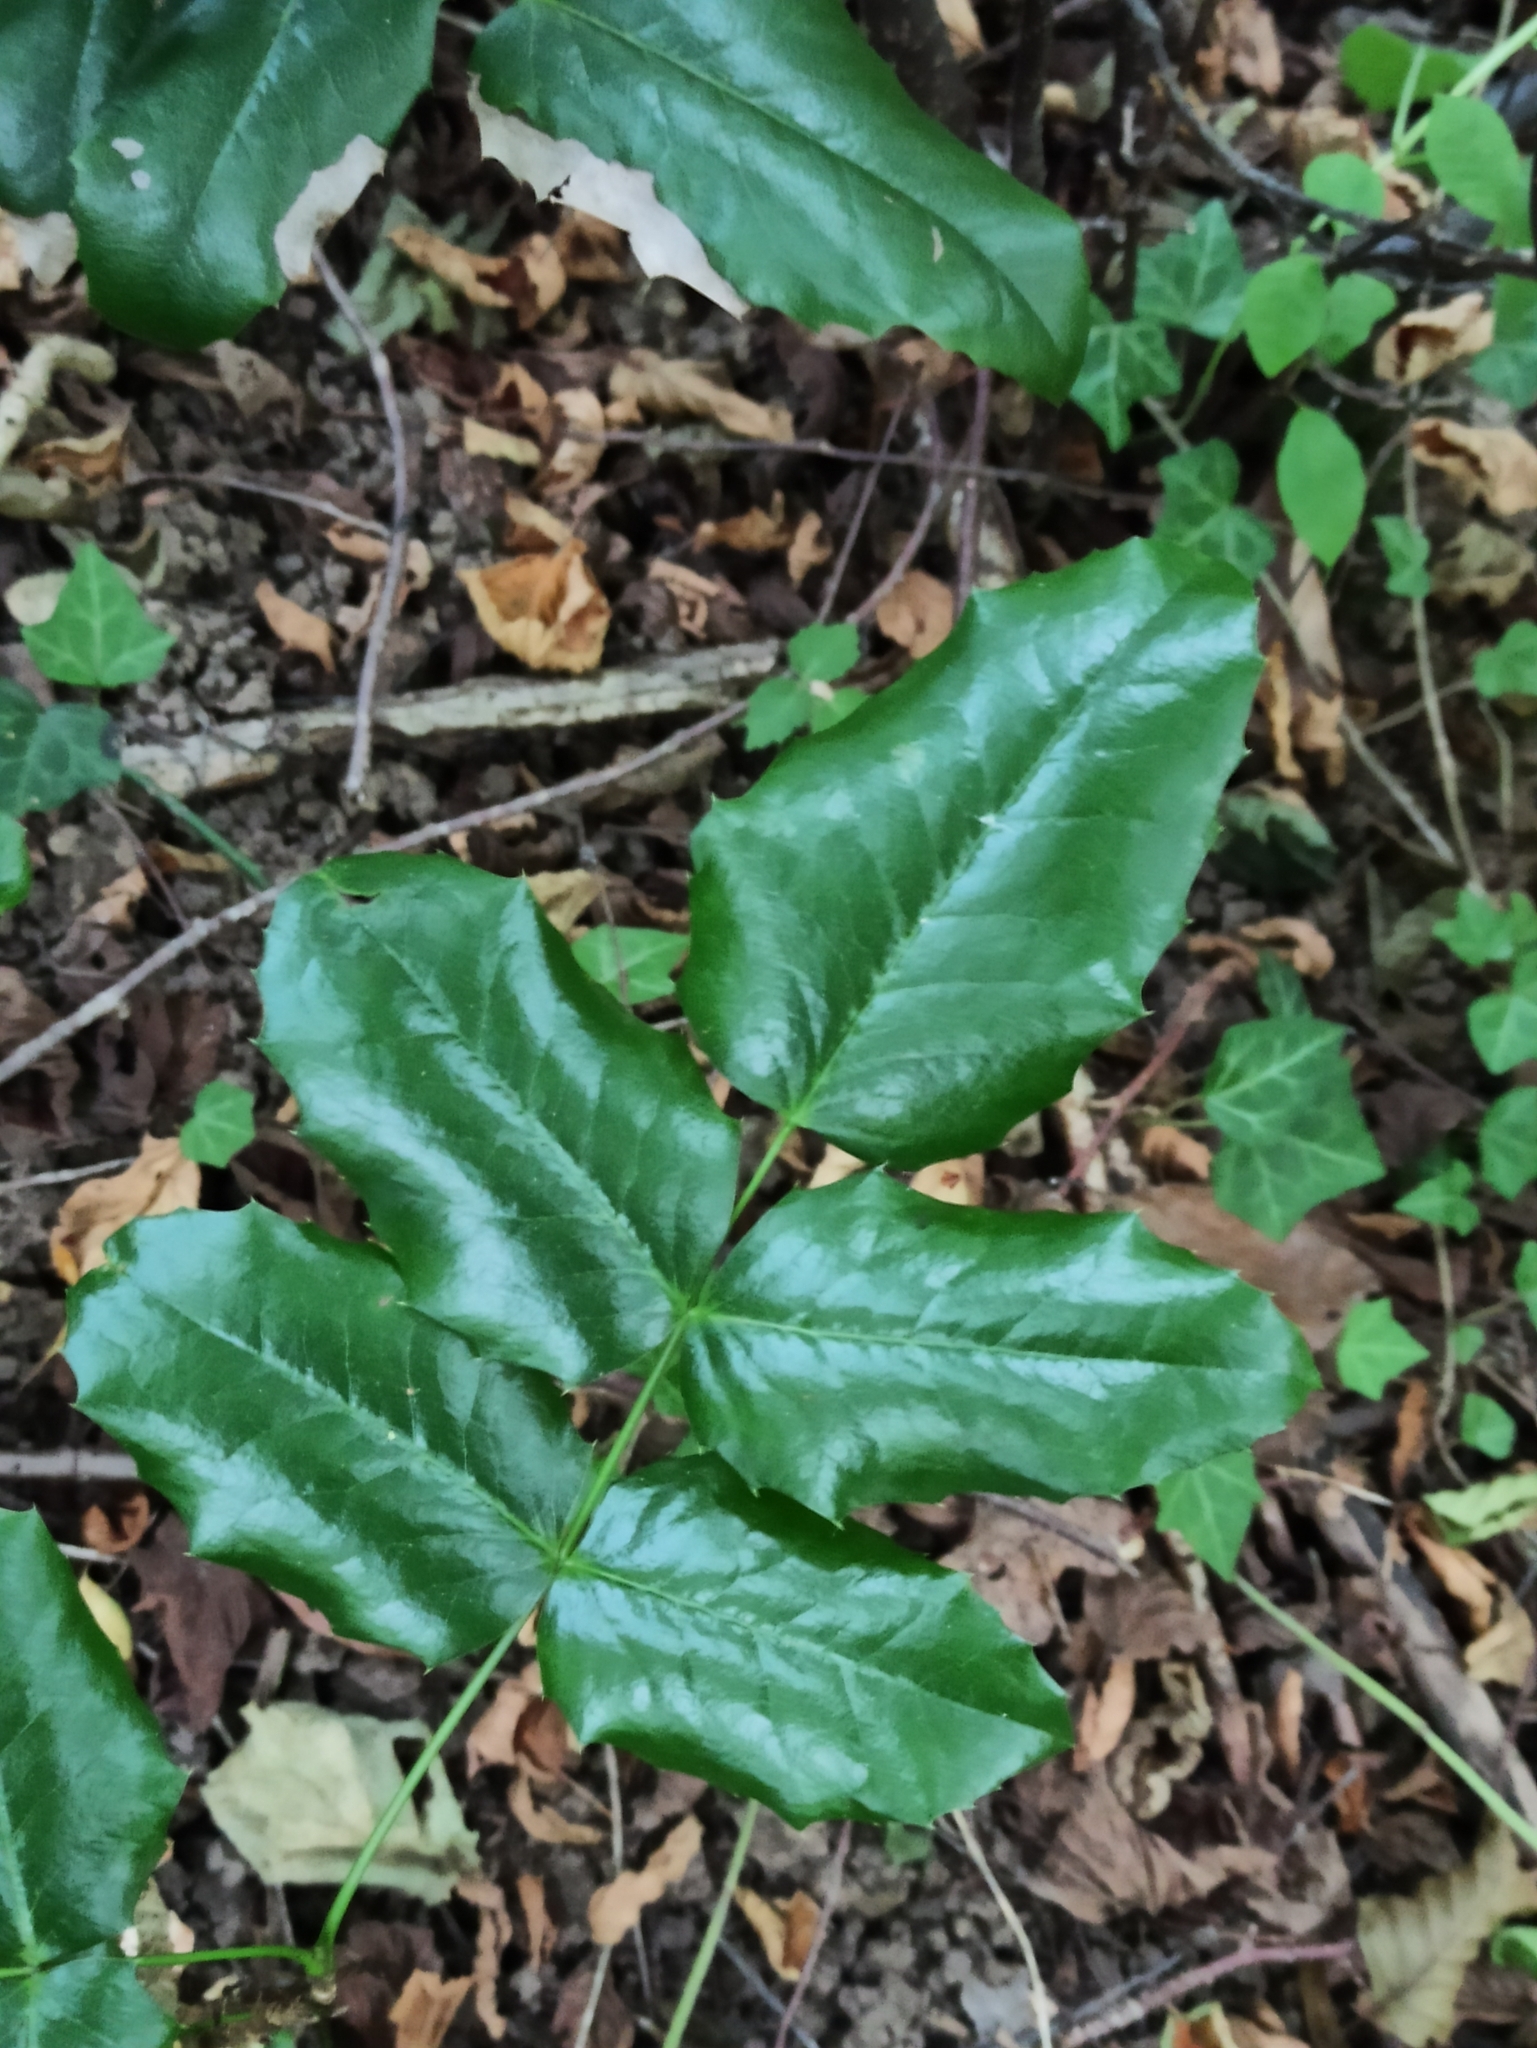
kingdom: Plantae
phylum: Tracheophyta
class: Magnoliopsida
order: Ranunculales
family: Berberidaceae
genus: Mahonia
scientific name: Mahonia aquifolium
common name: Oregon-grape
